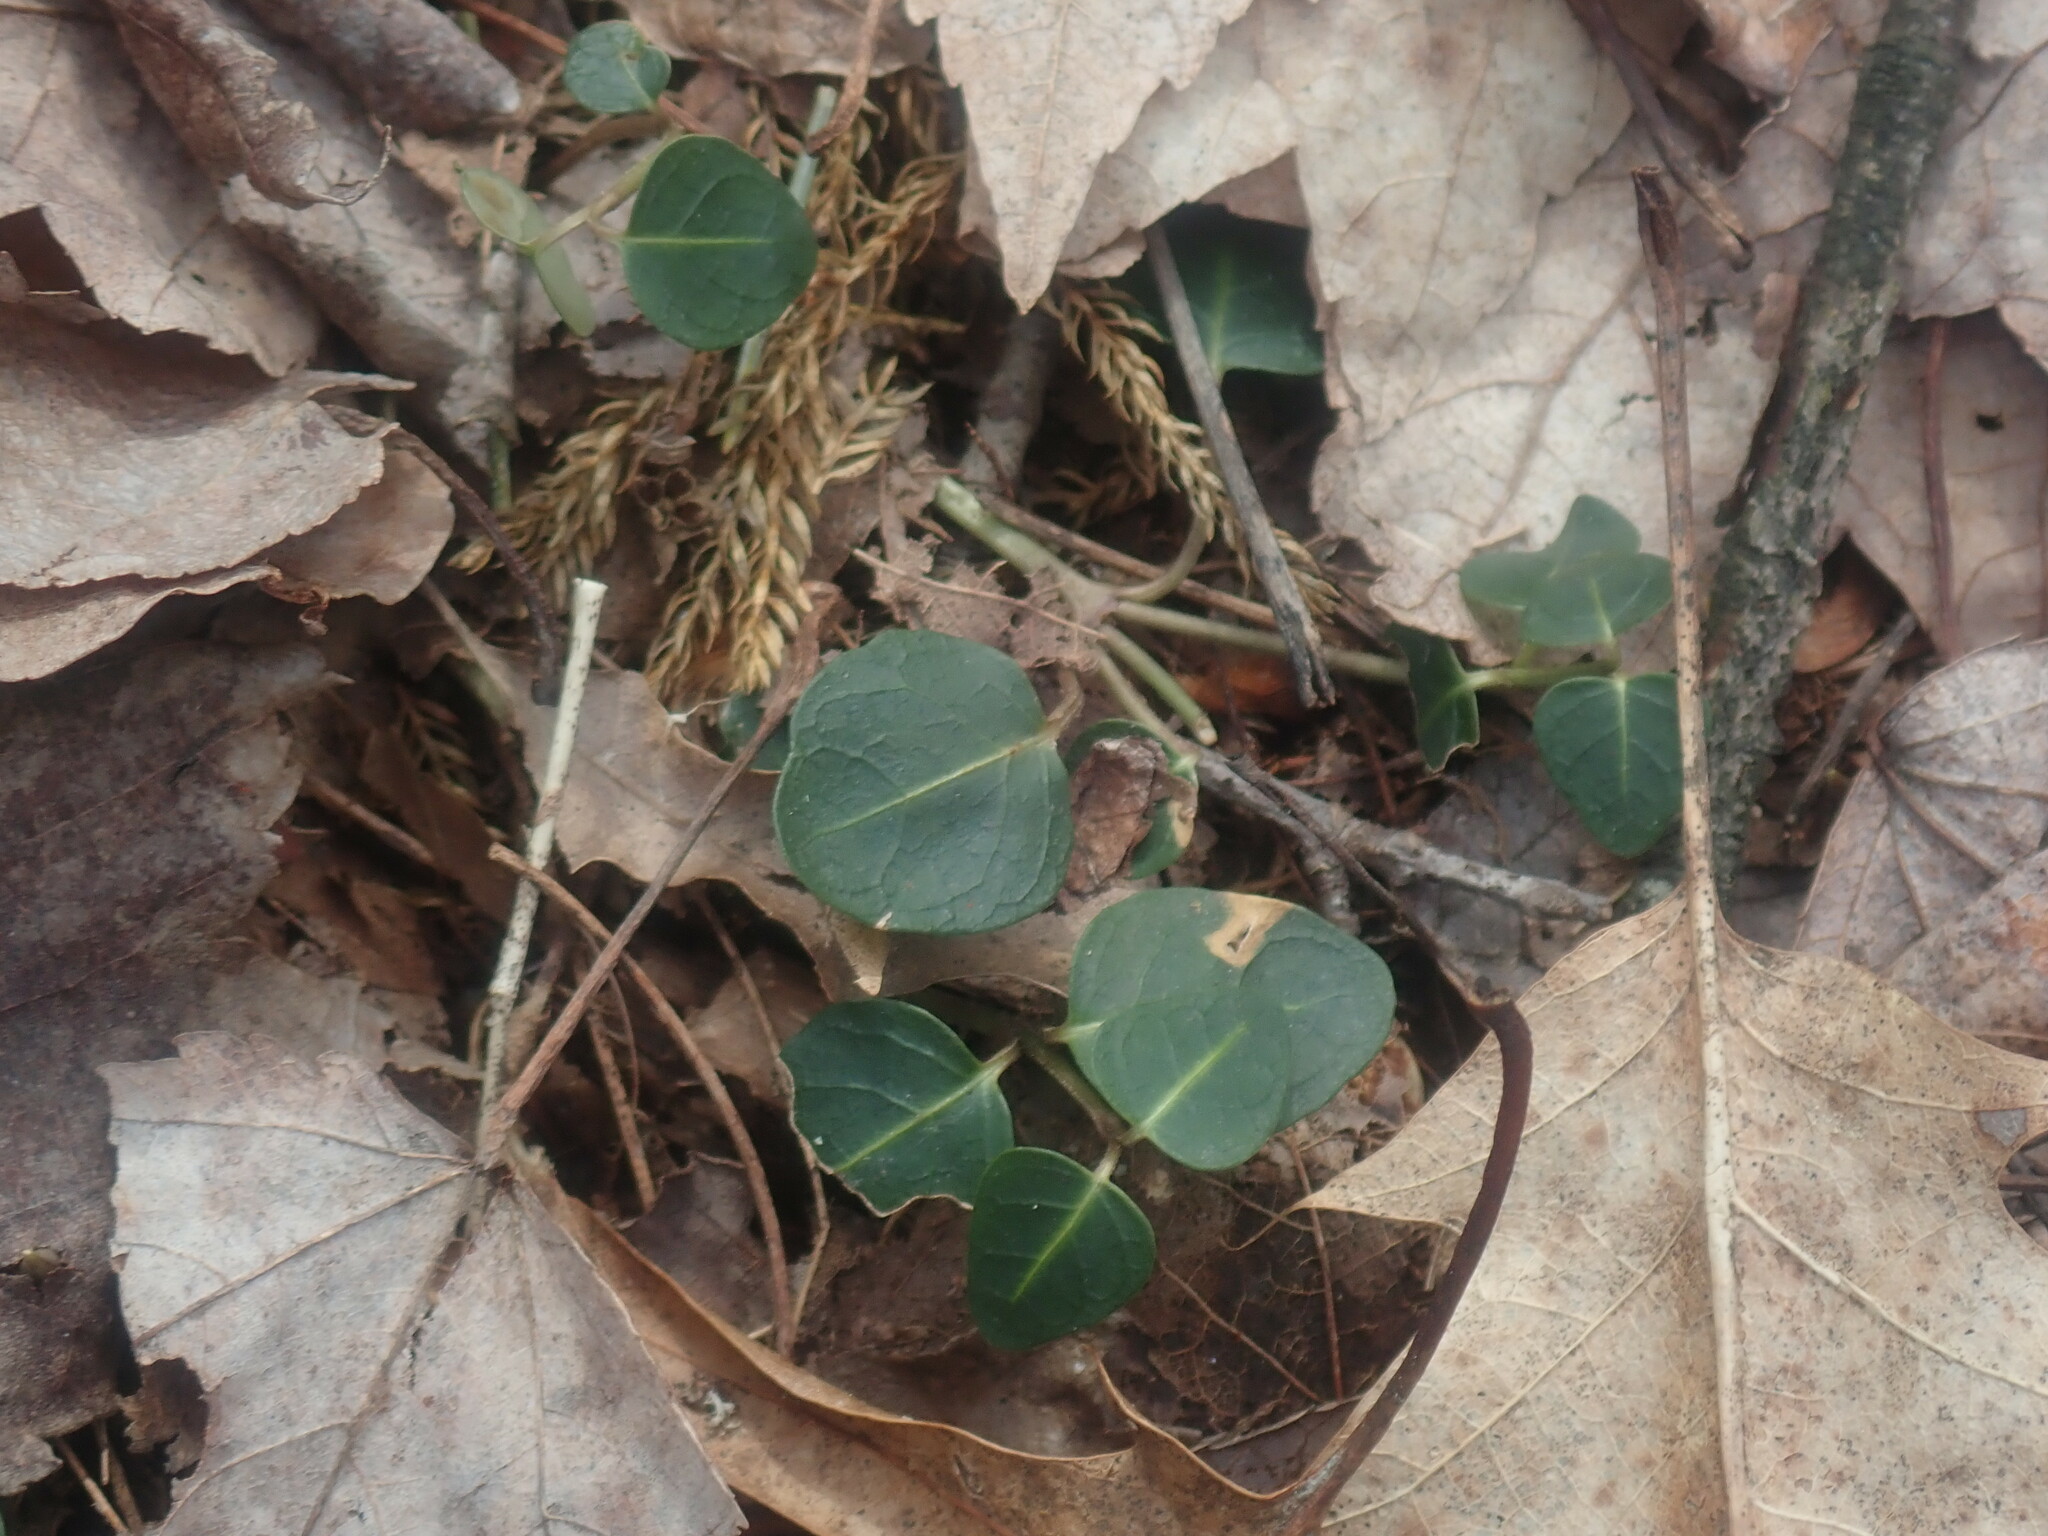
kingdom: Plantae
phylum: Tracheophyta
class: Magnoliopsida
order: Gentianales
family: Rubiaceae
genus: Mitchella
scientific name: Mitchella repens
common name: Partridge-berry
